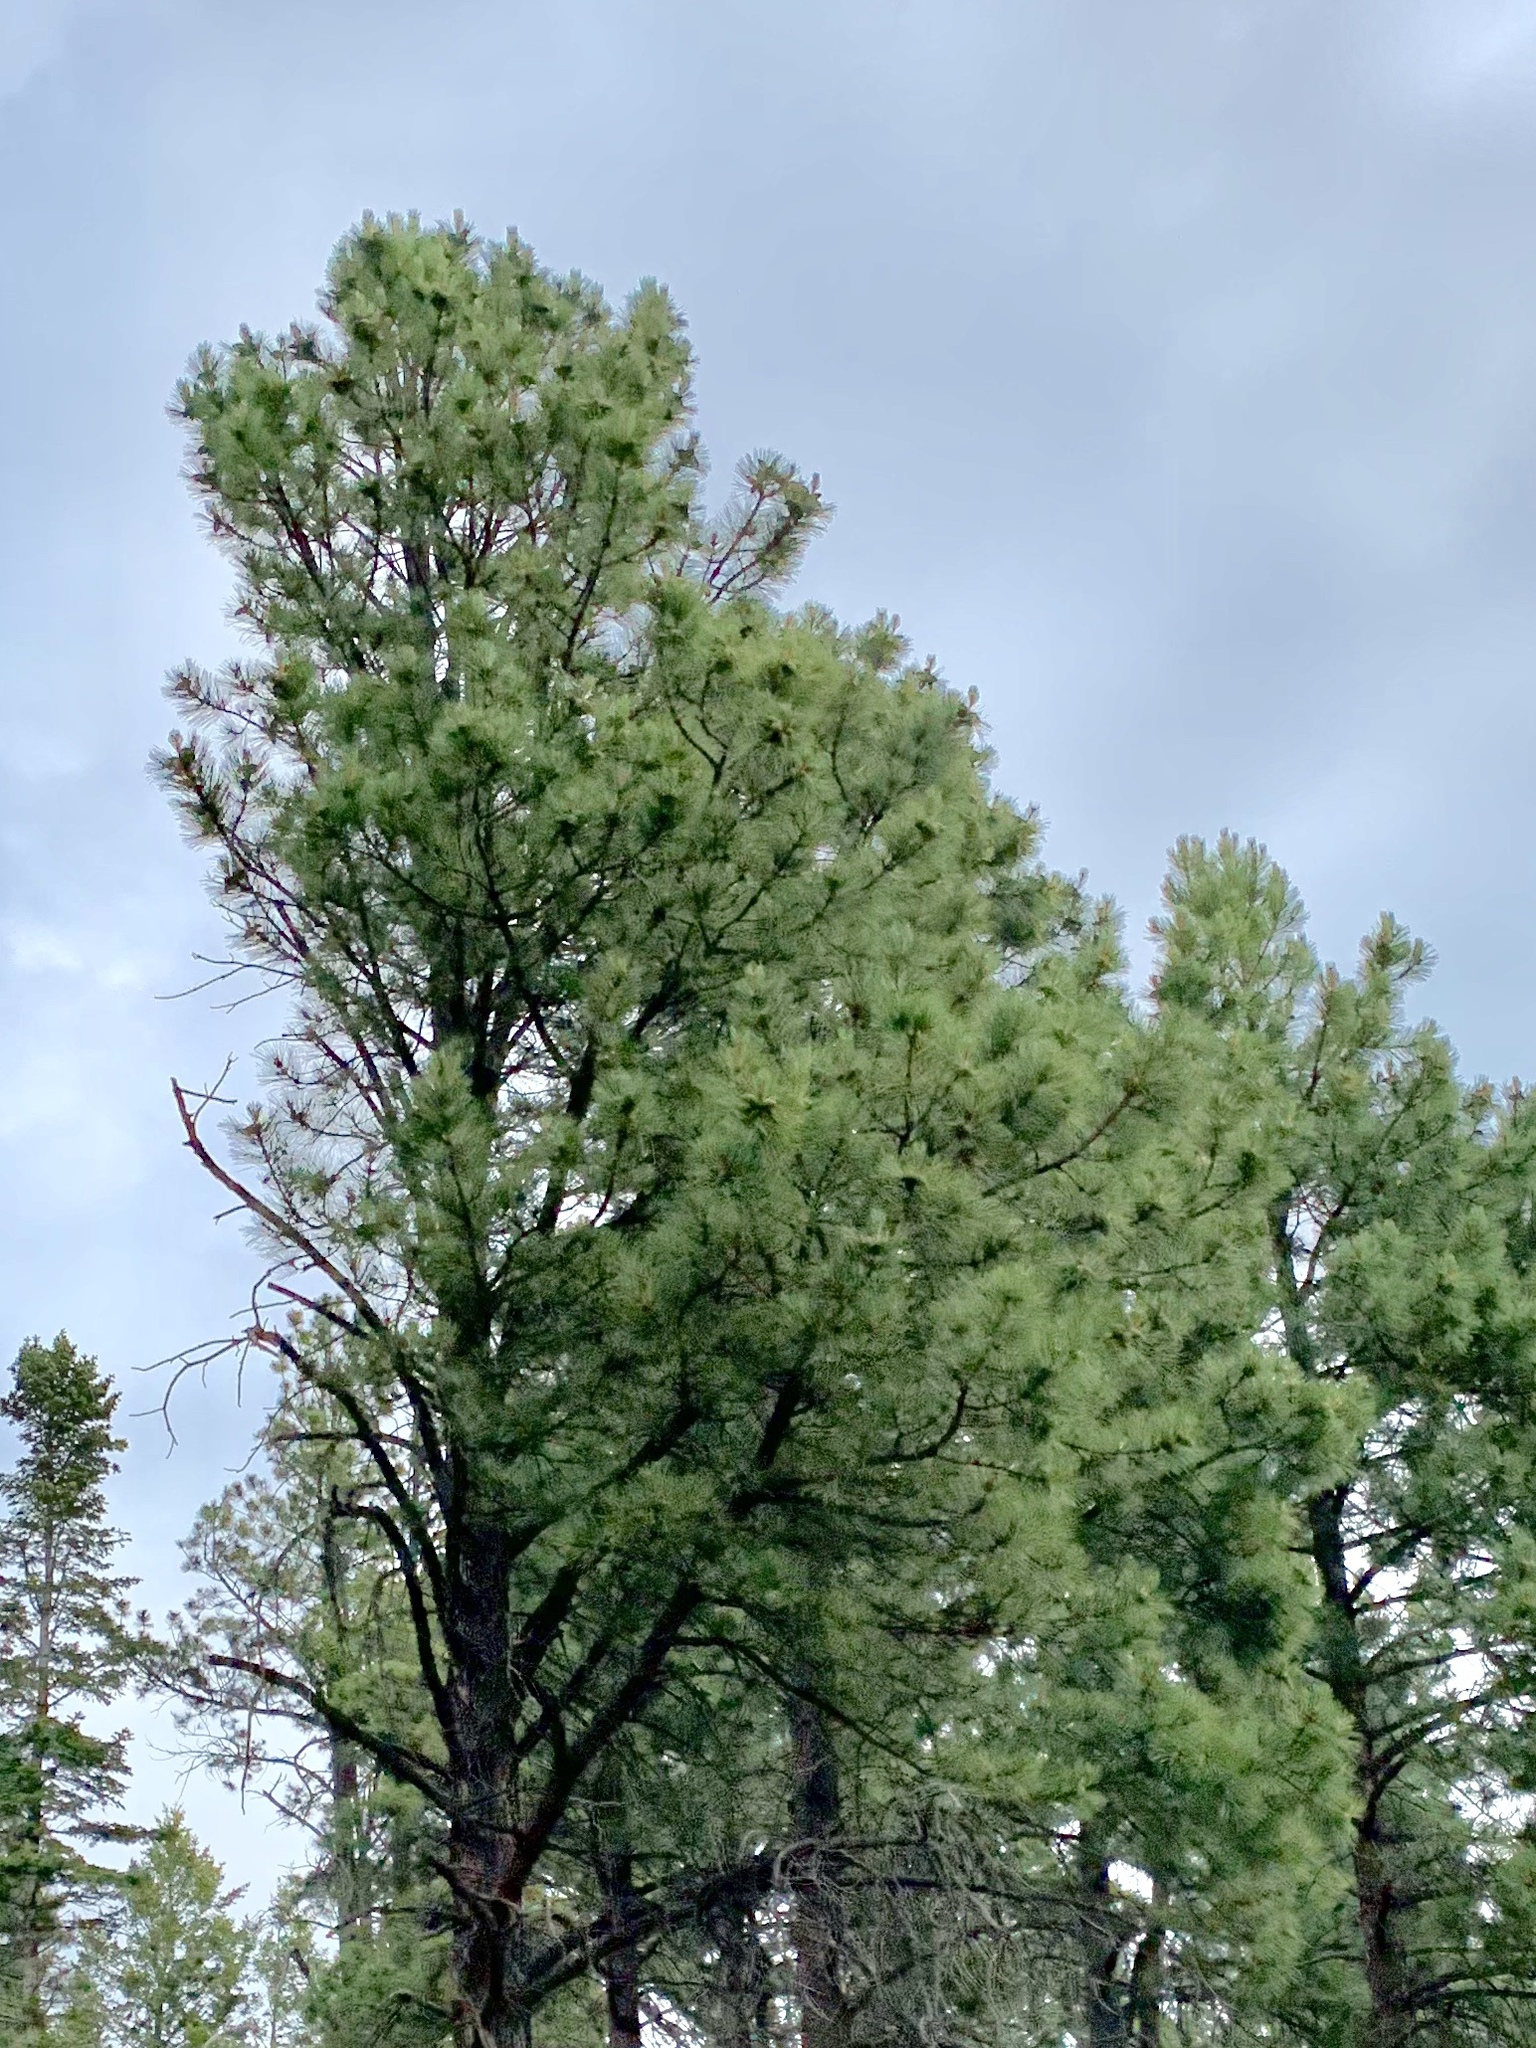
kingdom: Plantae
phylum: Tracheophyta
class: Pinopsida
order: Pinales
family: Pinaceae
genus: Pinus
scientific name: Pinus ponderosa
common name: Western yellow-pine
